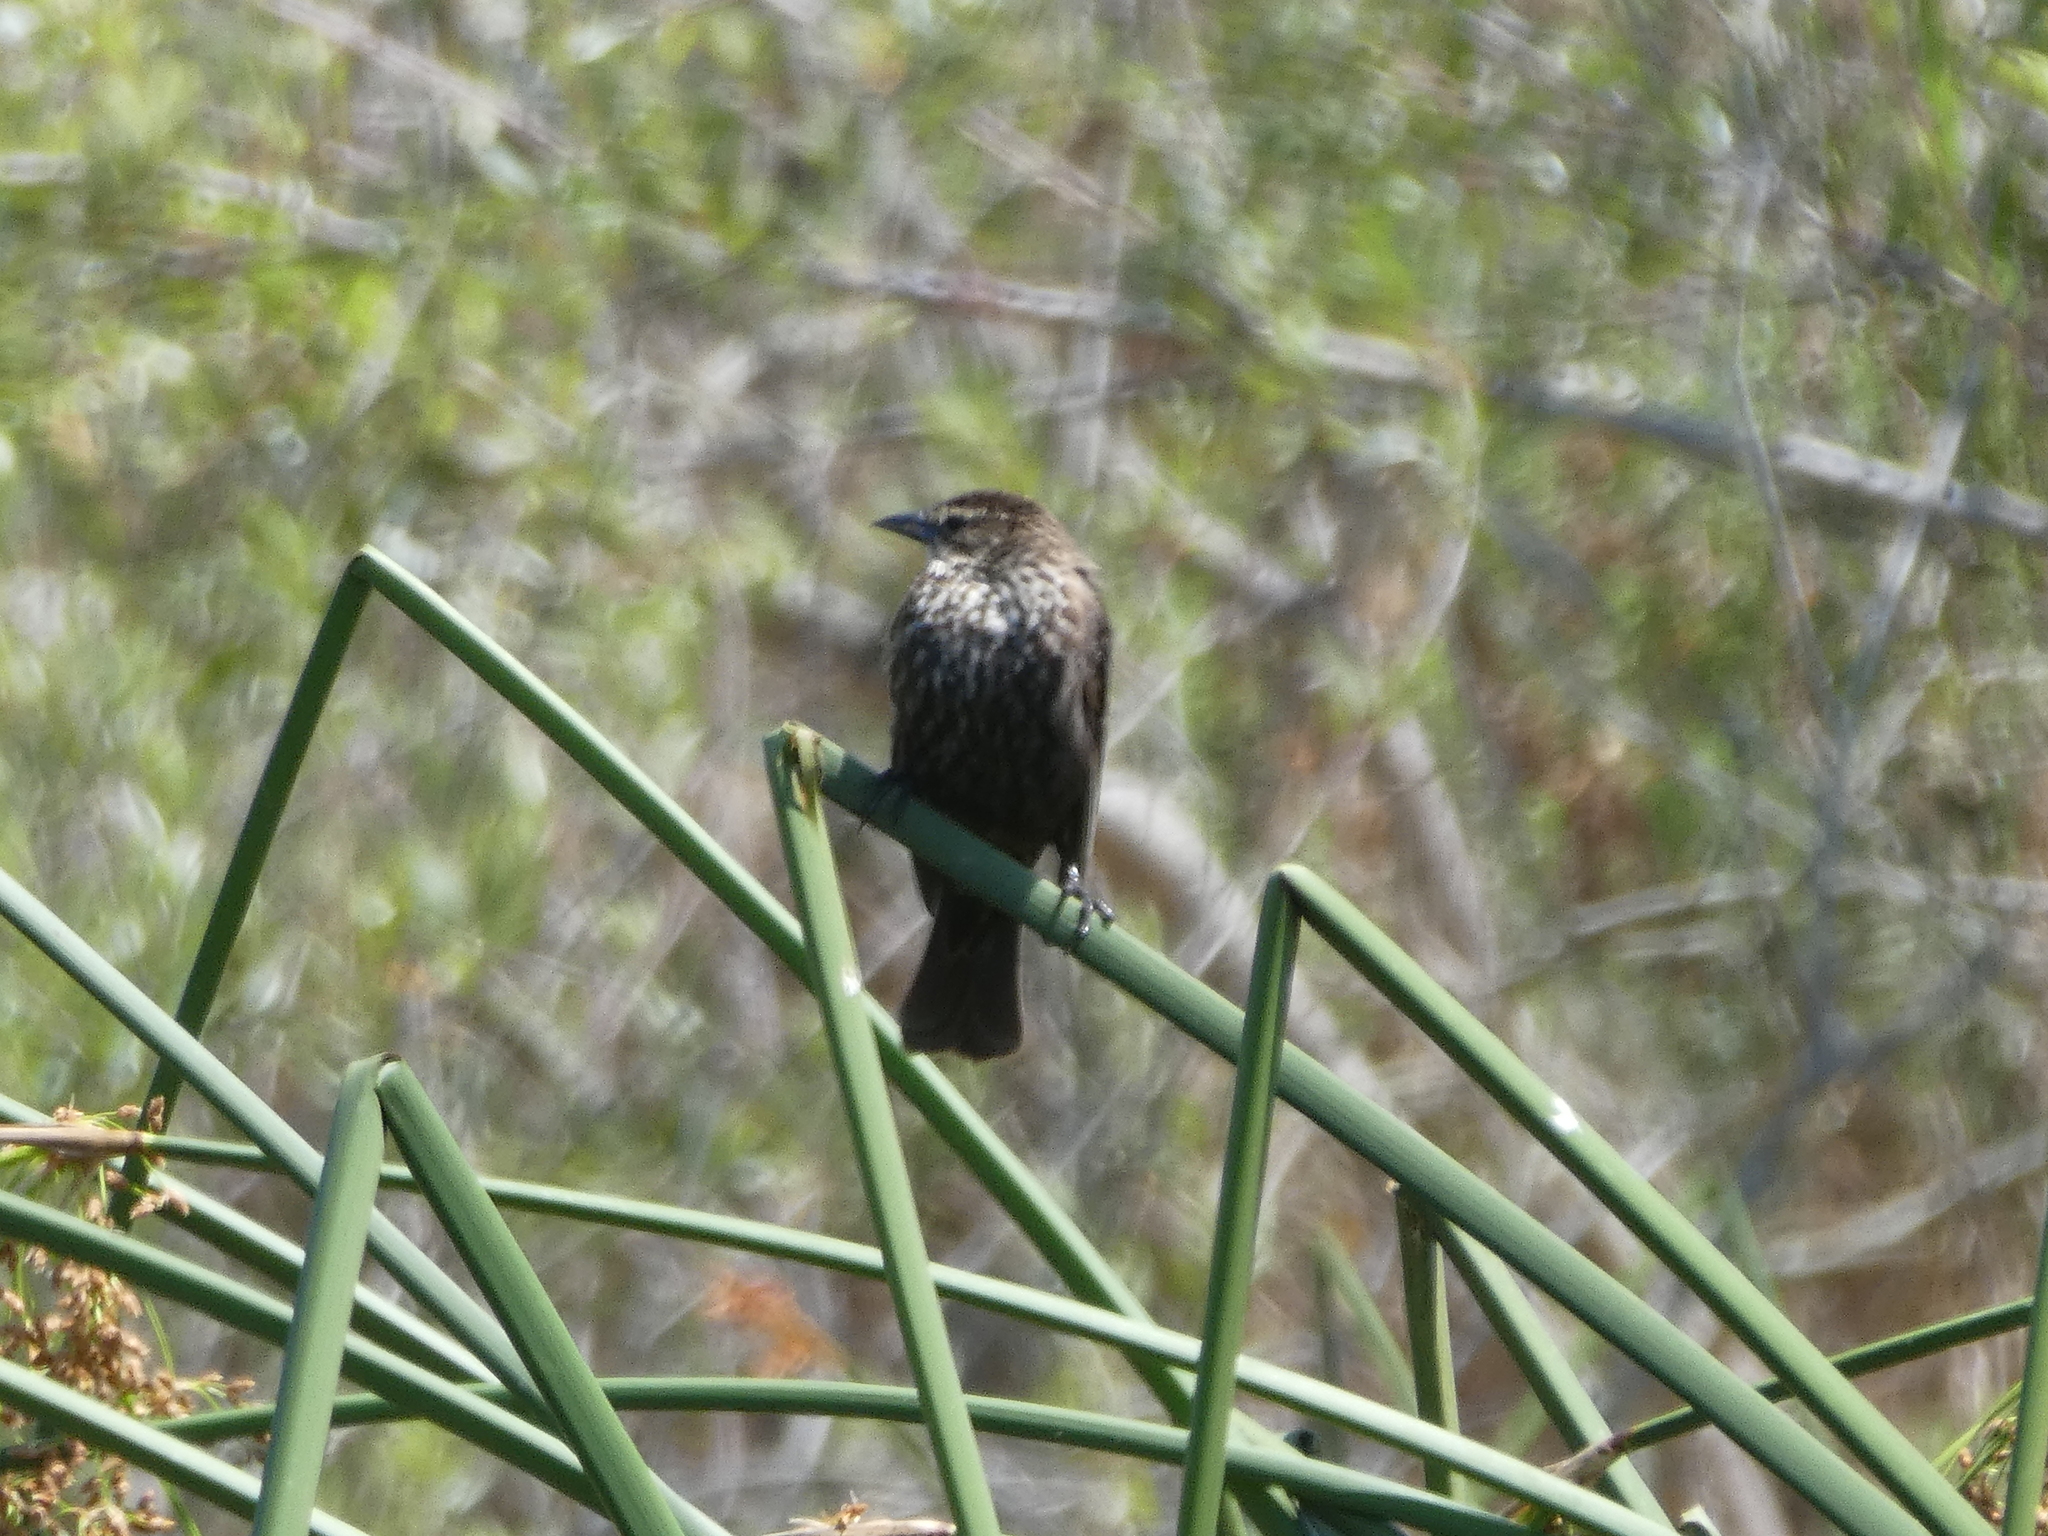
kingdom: Animalia
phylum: Chordata
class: Aves
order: Passeriformes
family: Icteridae
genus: Agelaius
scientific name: Agelaius phoeniceus
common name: Red-winged blackbird
